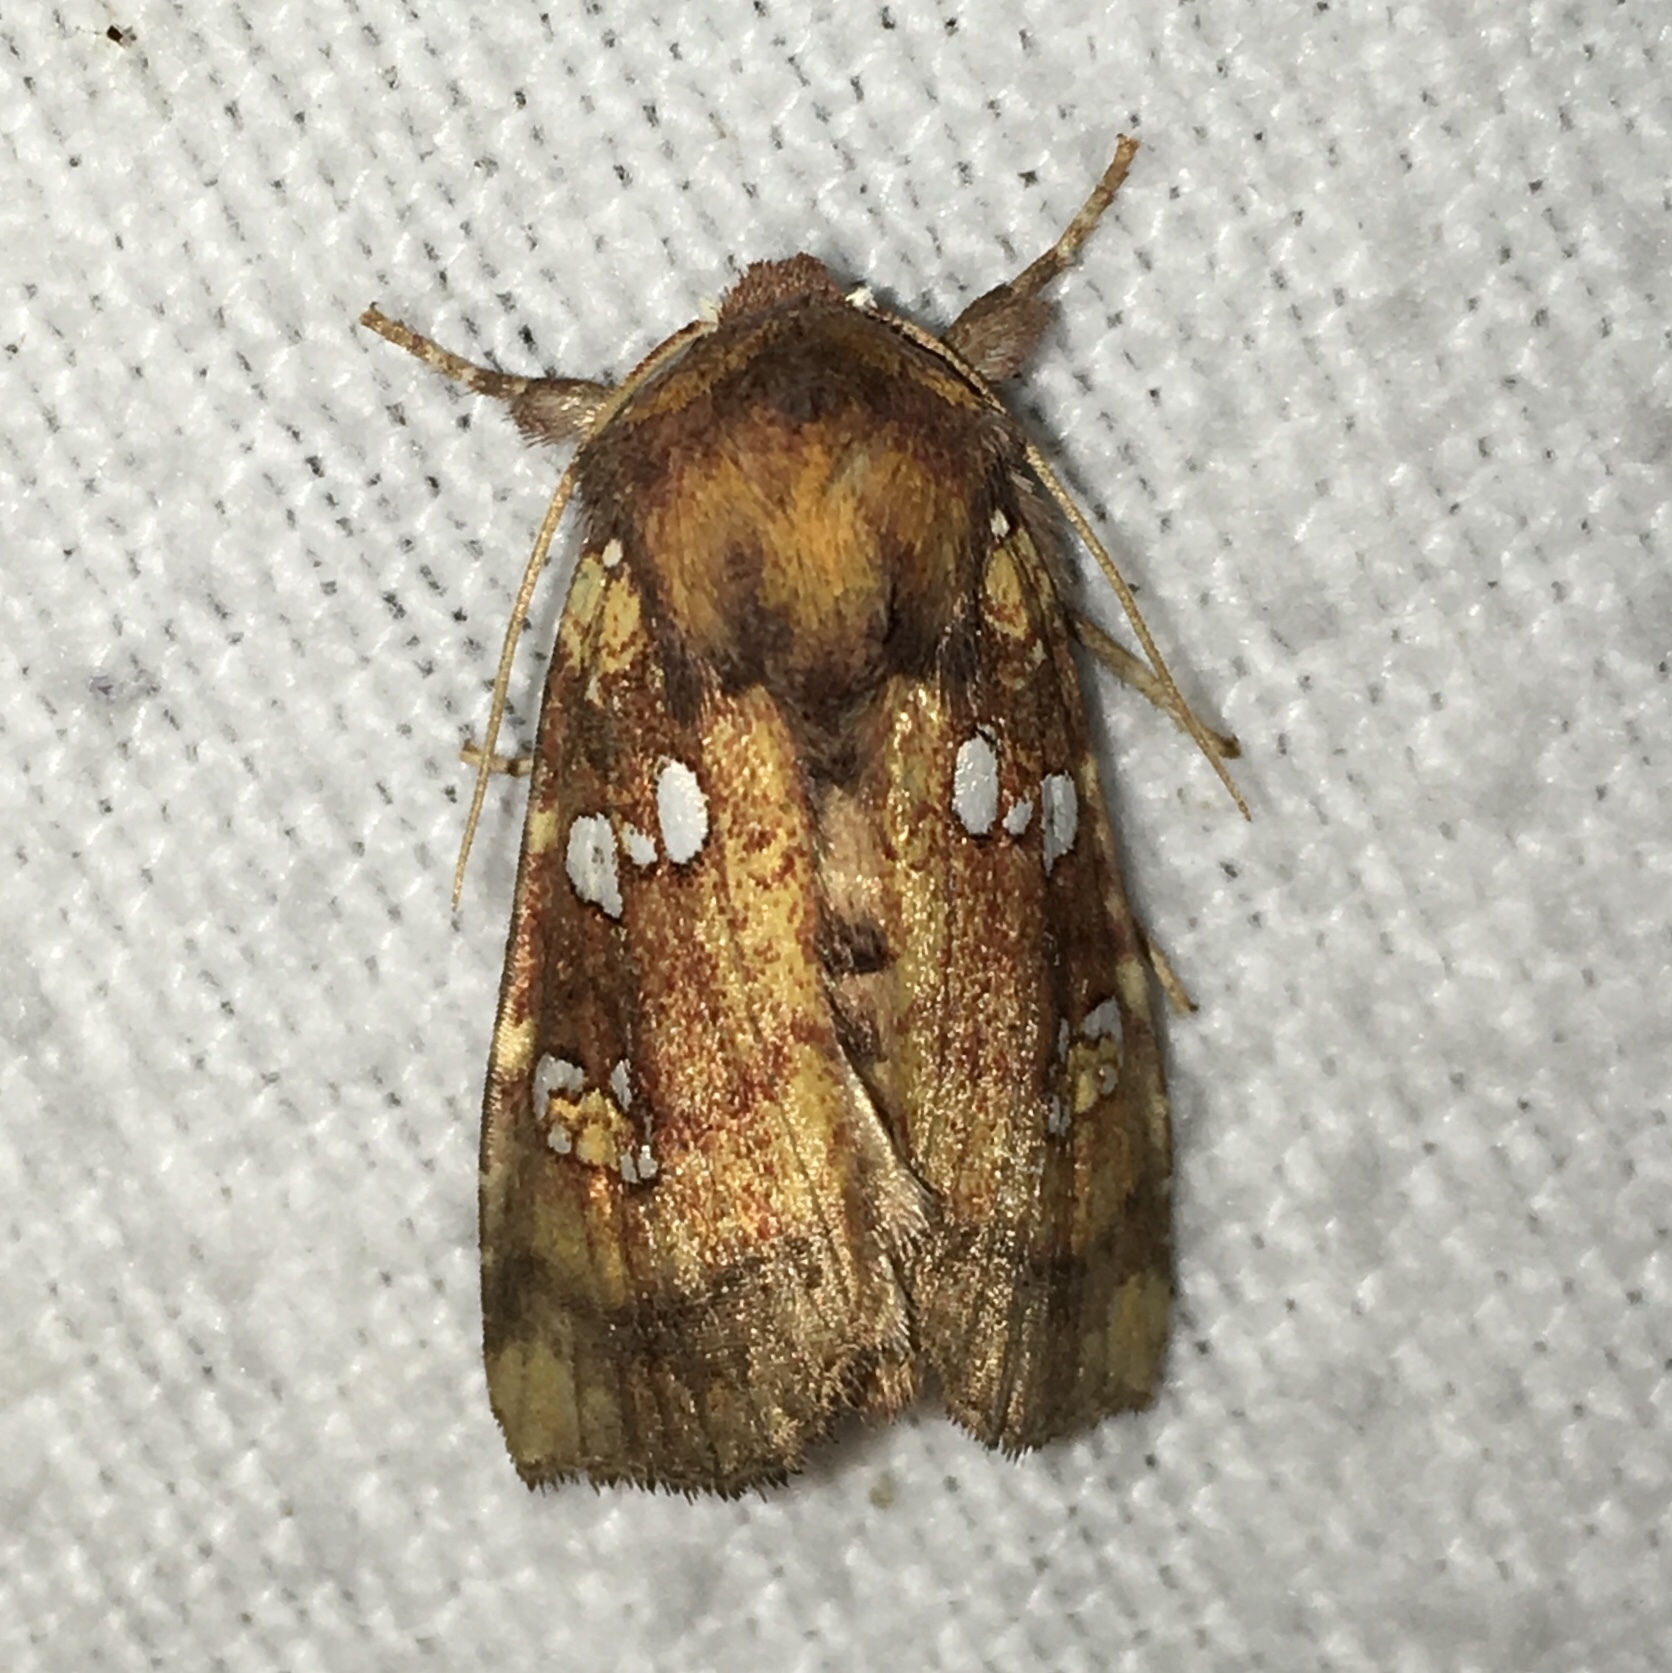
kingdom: Animalia
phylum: Arthropoda
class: Insecta
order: Lepidoptera
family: Noctuidae
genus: Papaipema
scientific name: Papaipema arctivorens
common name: Northern burdock borer moth
